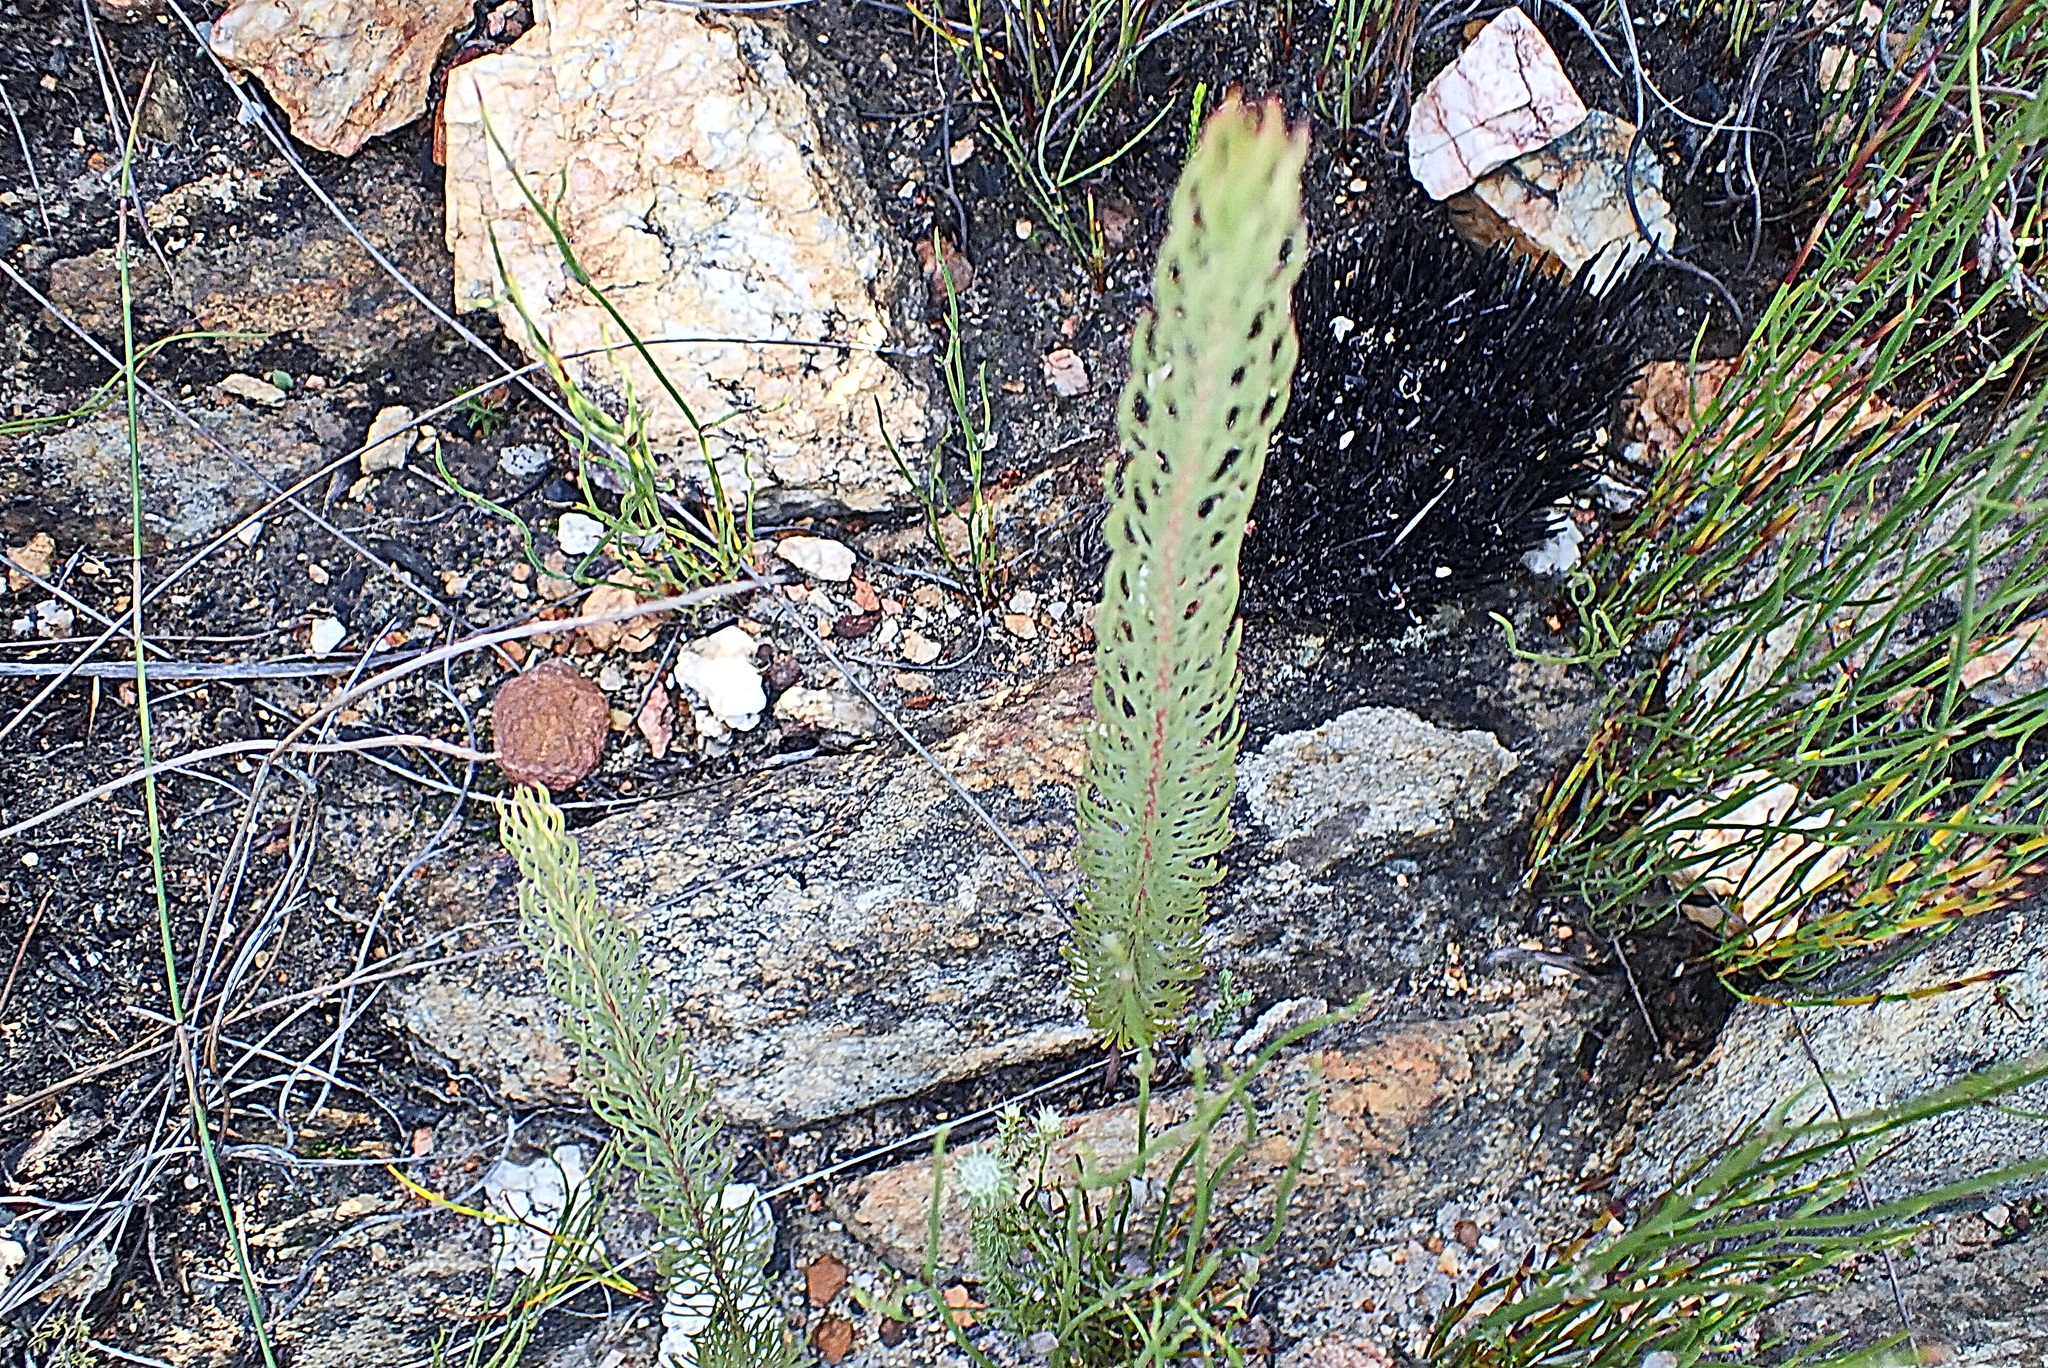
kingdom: Plantae
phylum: Tracheophyta
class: Magnoliopsida
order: Proteales
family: Proteaceae
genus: Spatalla
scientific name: Spatalla barbigera
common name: Fine-leaf spoon
